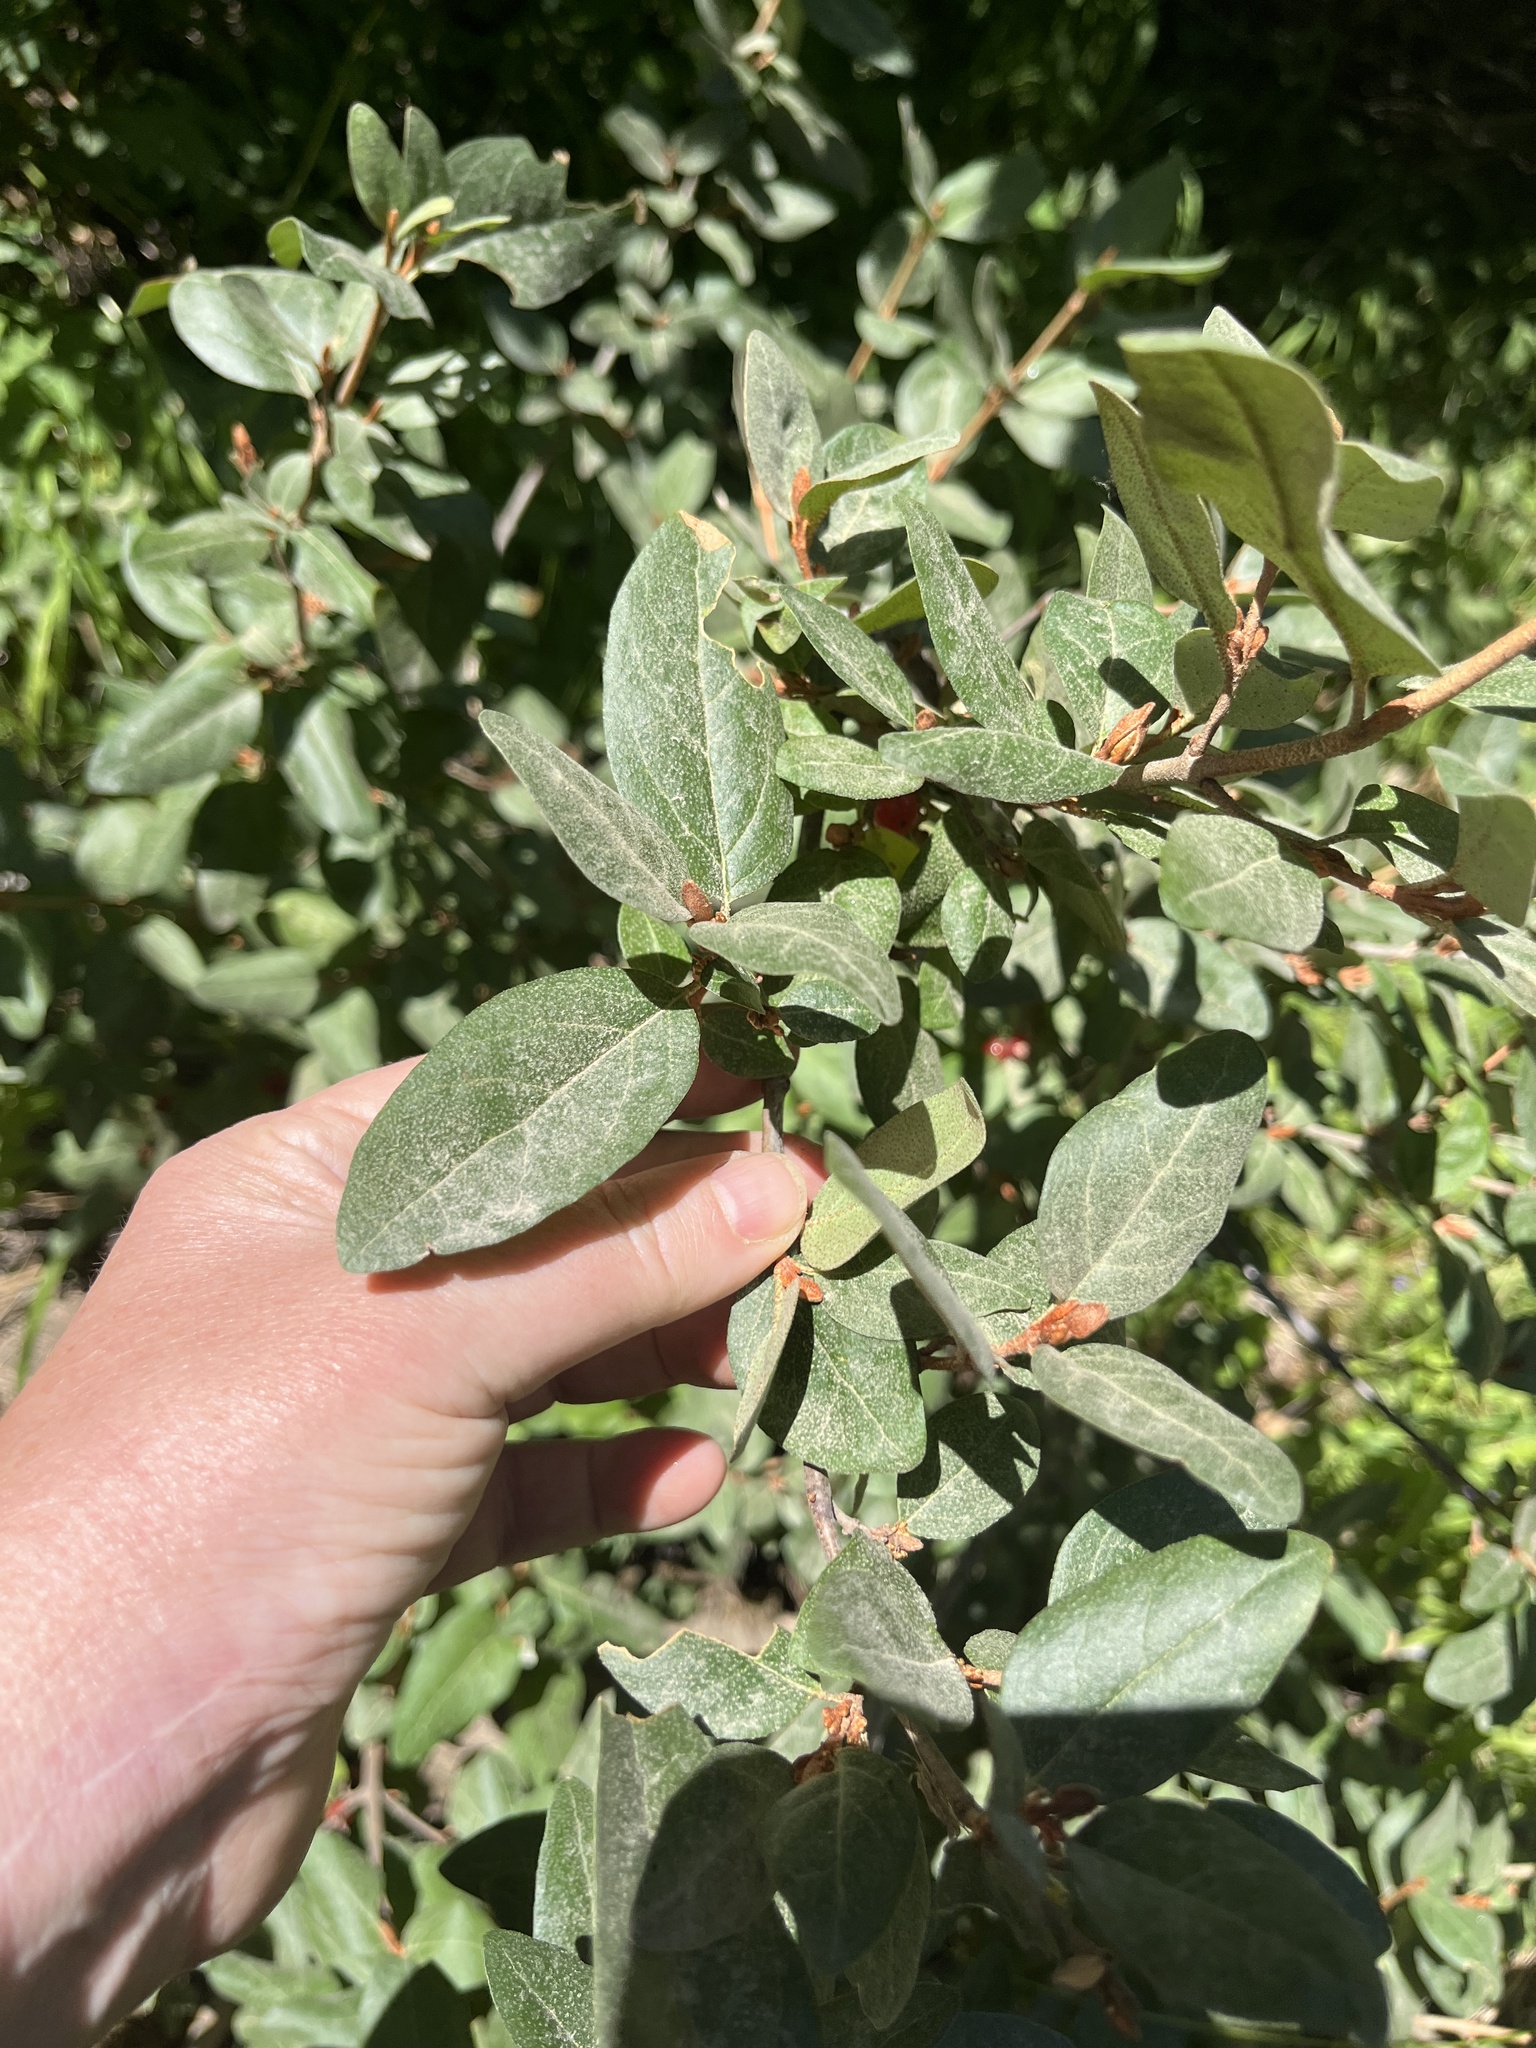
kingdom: Plantae
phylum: Tracheophyta
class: Magnoliopsida
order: Rosales
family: Elaeagnaceae
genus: Shepherdia
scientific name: Shepherdia canadensis
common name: Soapberry
